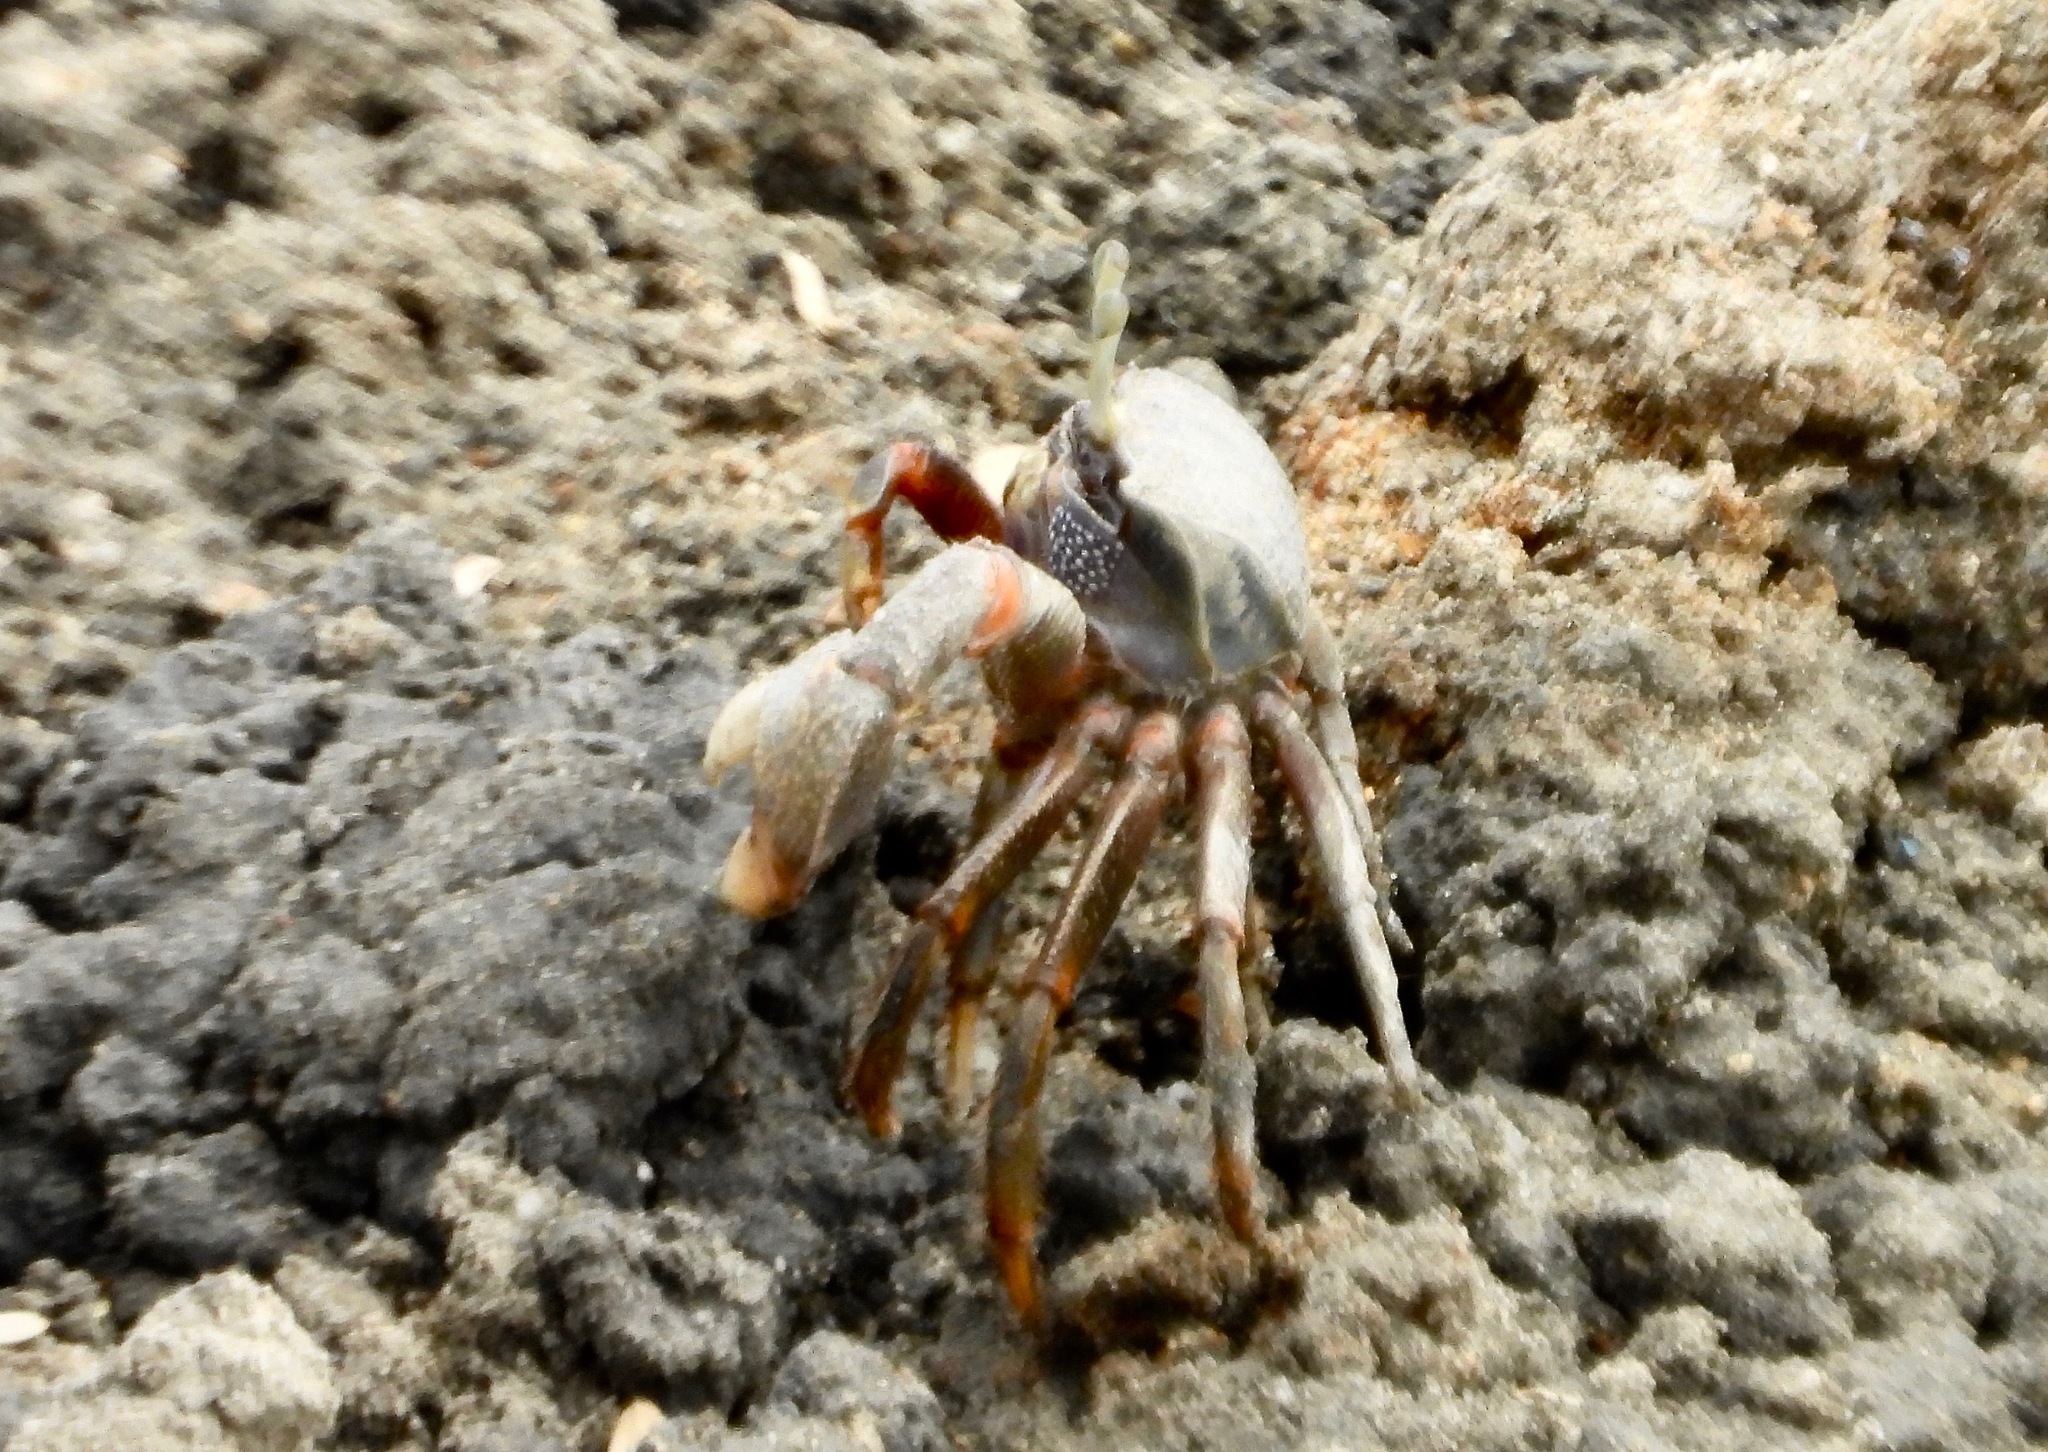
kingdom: Animalia
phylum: Arthropoda
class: Malacostraca
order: Decapoda
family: Ocypodidae
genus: Afruca
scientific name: Afruca tangeri
